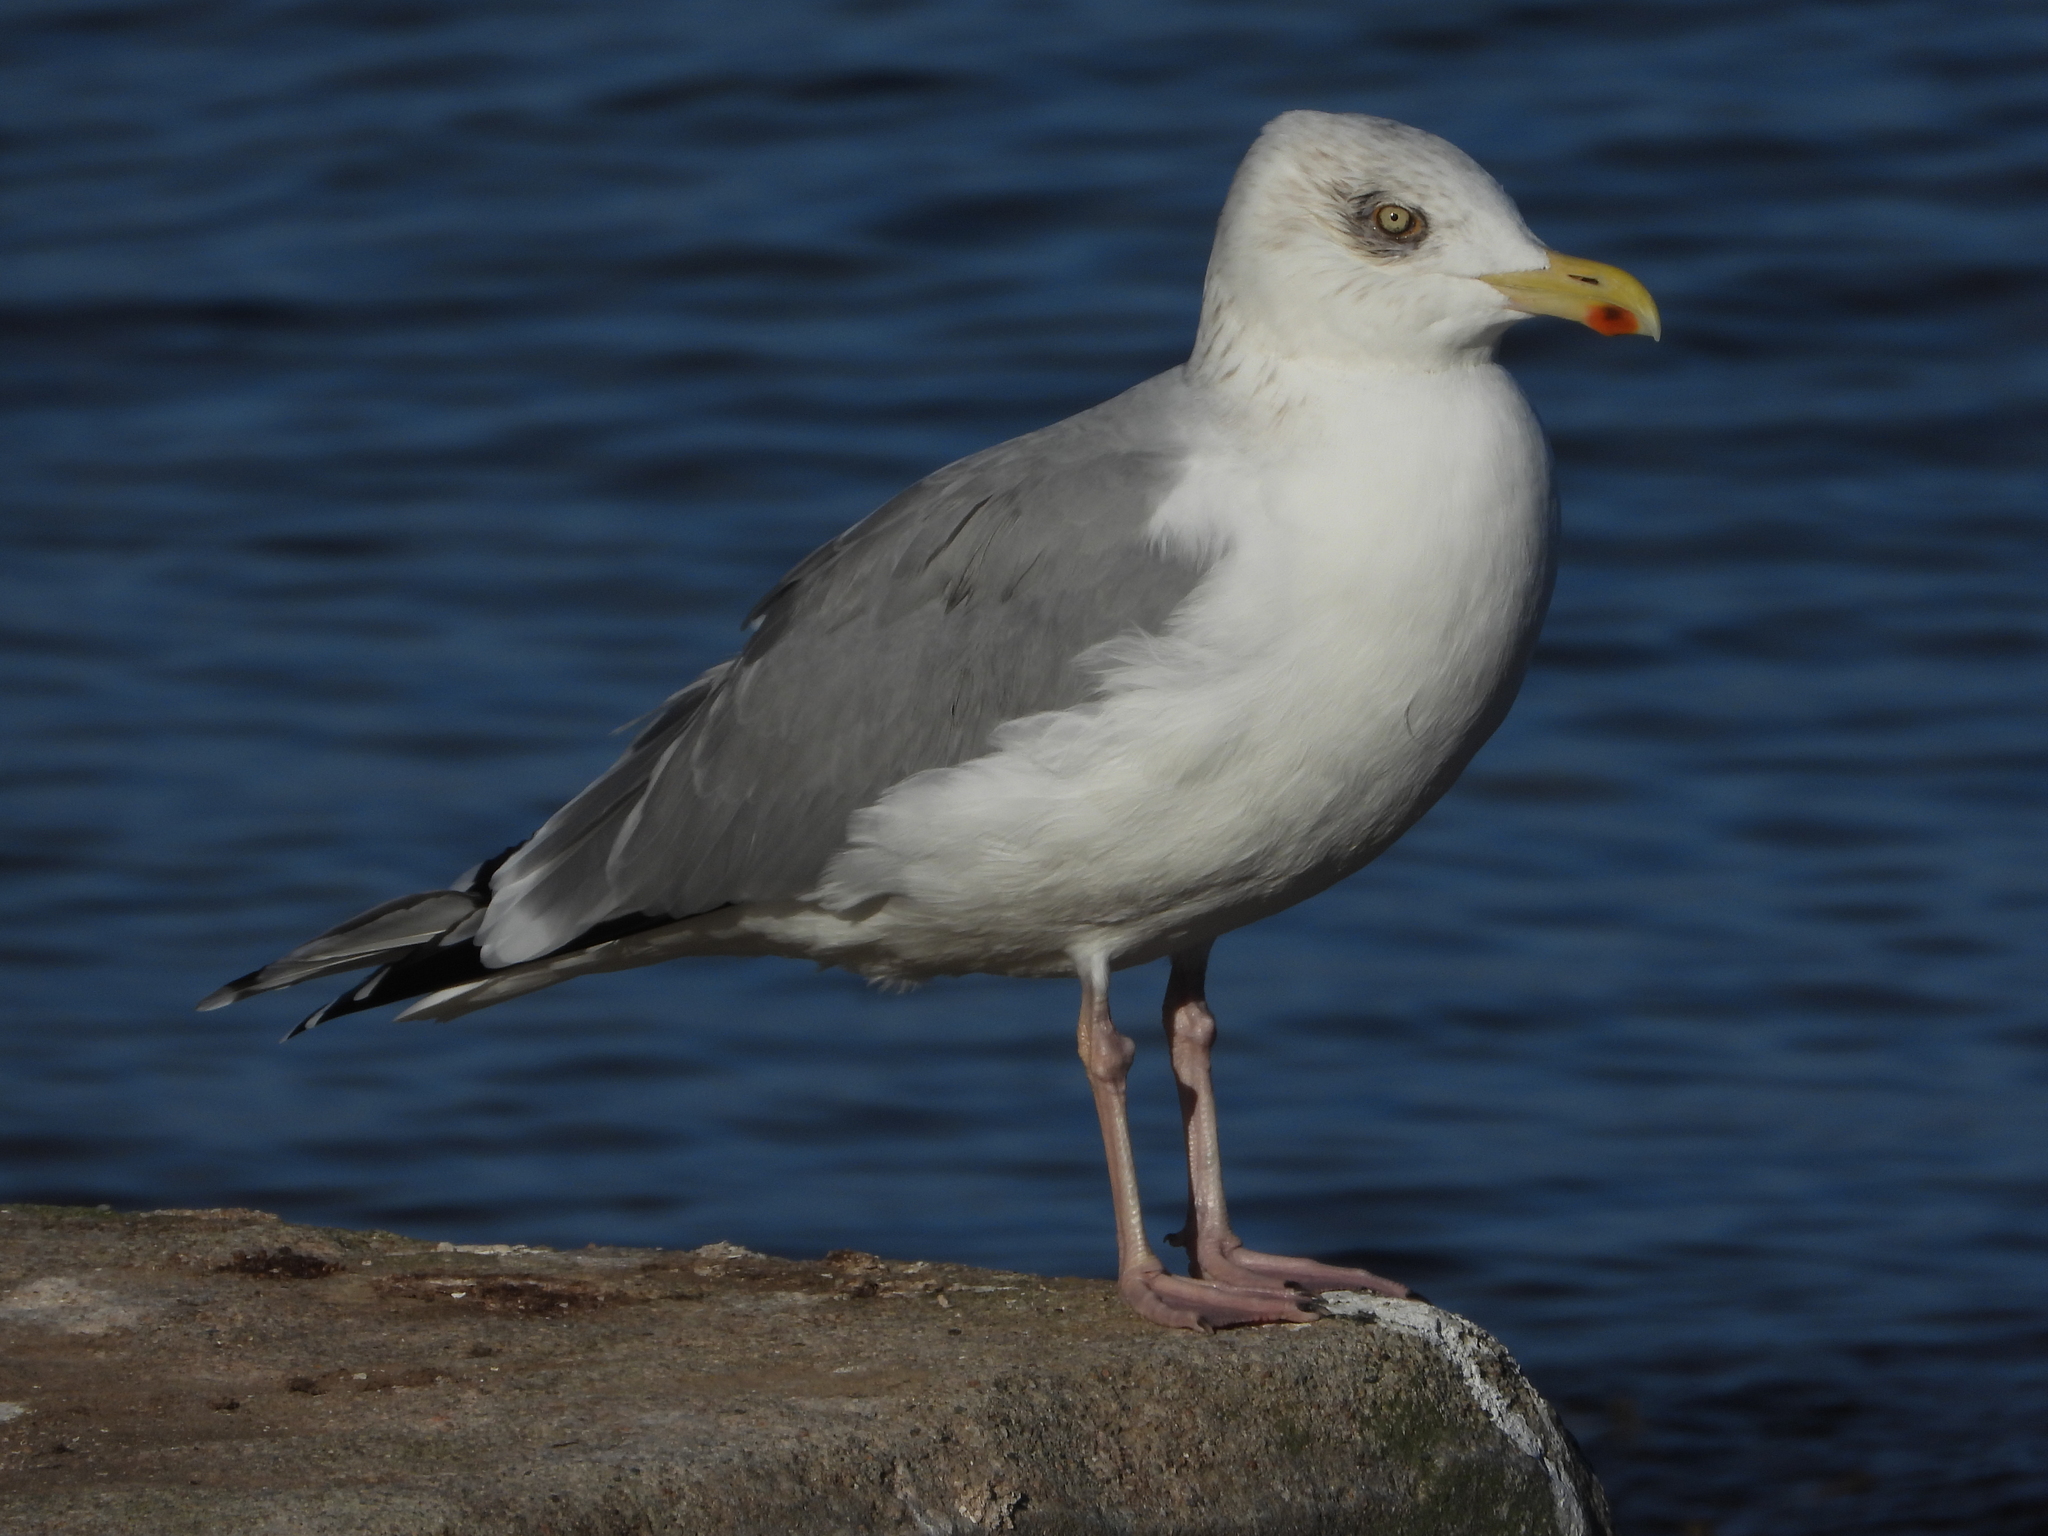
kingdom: Animalia
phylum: Chordata
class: Aves
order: Charadriiformes
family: Laridae
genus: Larus
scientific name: Larus argentatus
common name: Herring gull
